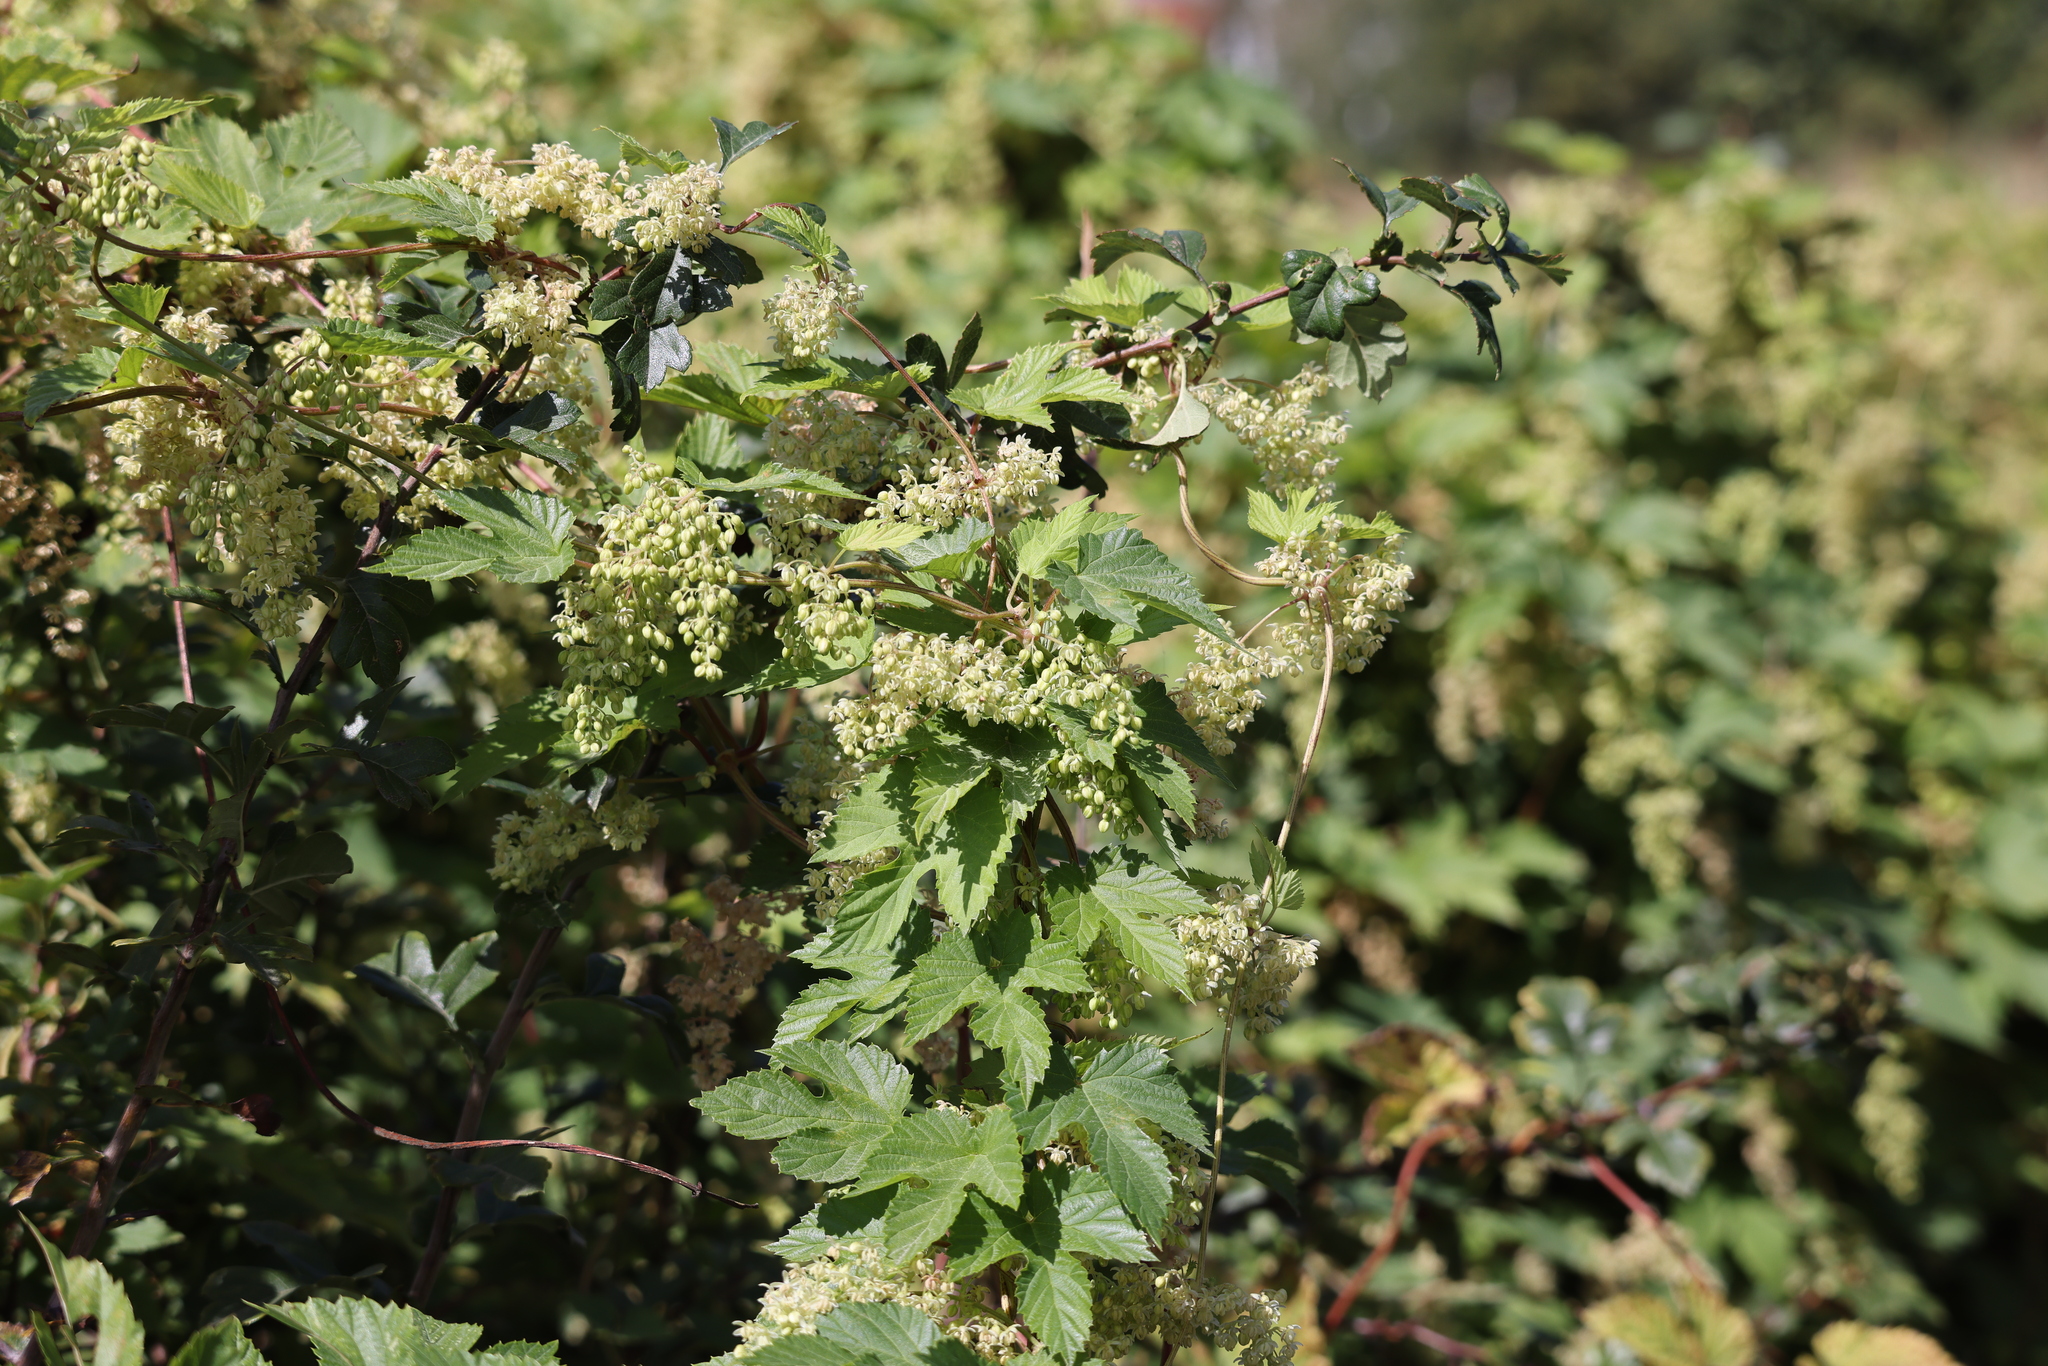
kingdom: Plantae
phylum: Tracheophyta
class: Magnoliopsida
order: Rosales
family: Cannabaceae
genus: Humulus
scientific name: Humulus lupulus
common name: Hop
